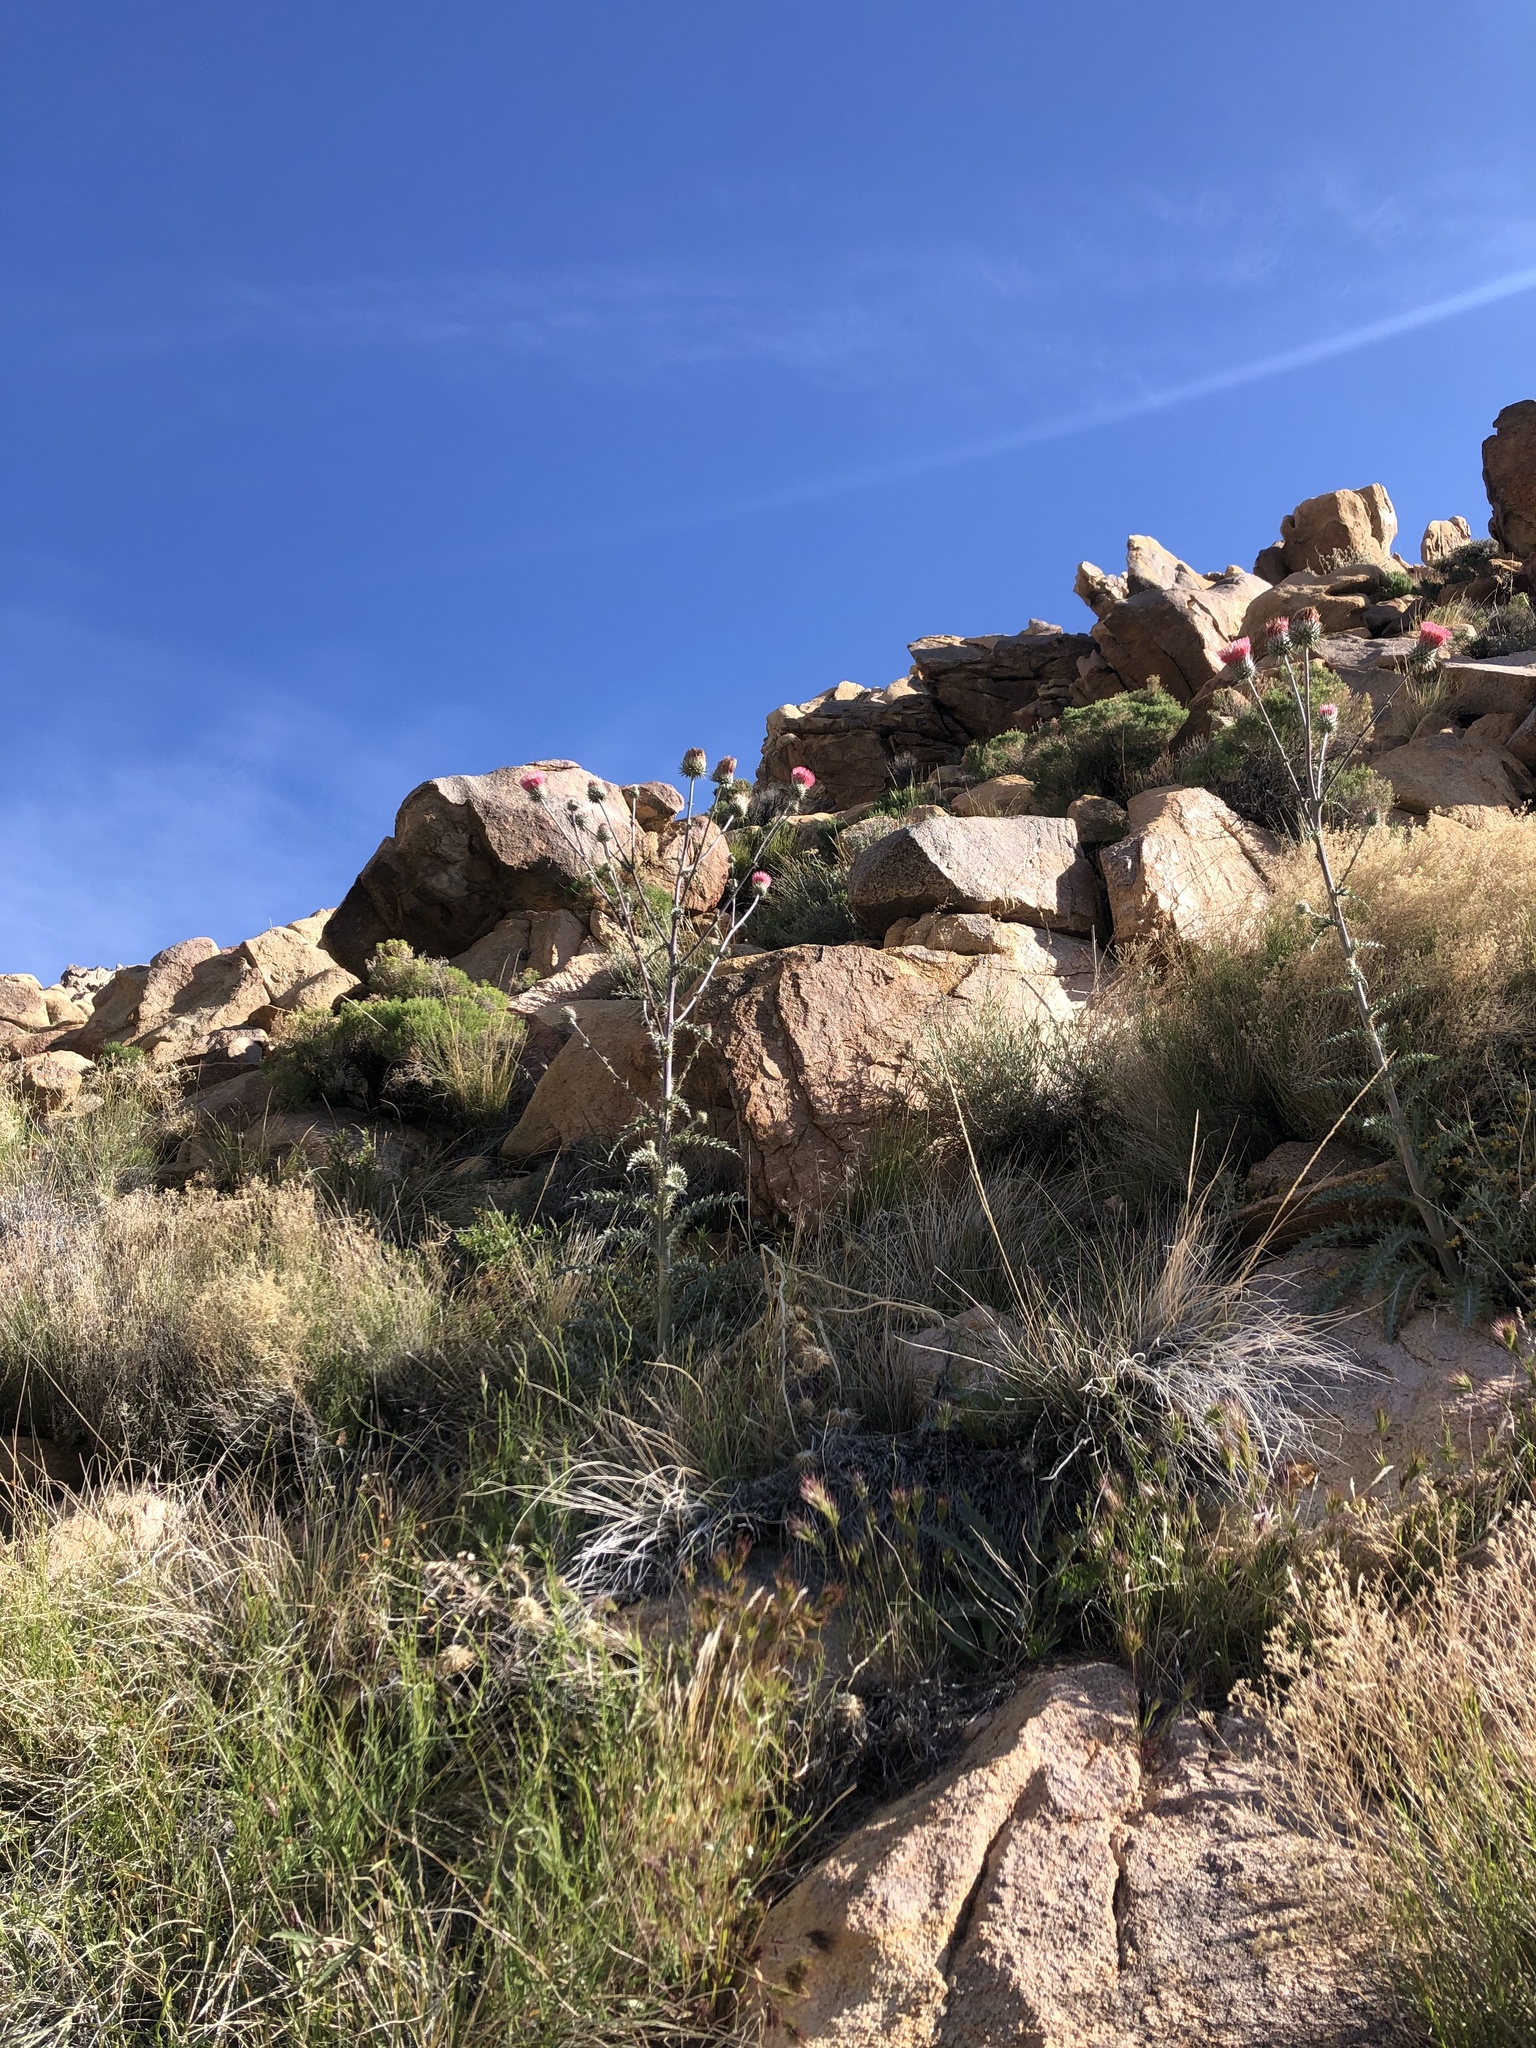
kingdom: Plantae
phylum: Tracheophyta
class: Magnoliopsida
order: Asterales
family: Asteraceae
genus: Cirsium
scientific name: Cirsium occidentale
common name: Western thistle
